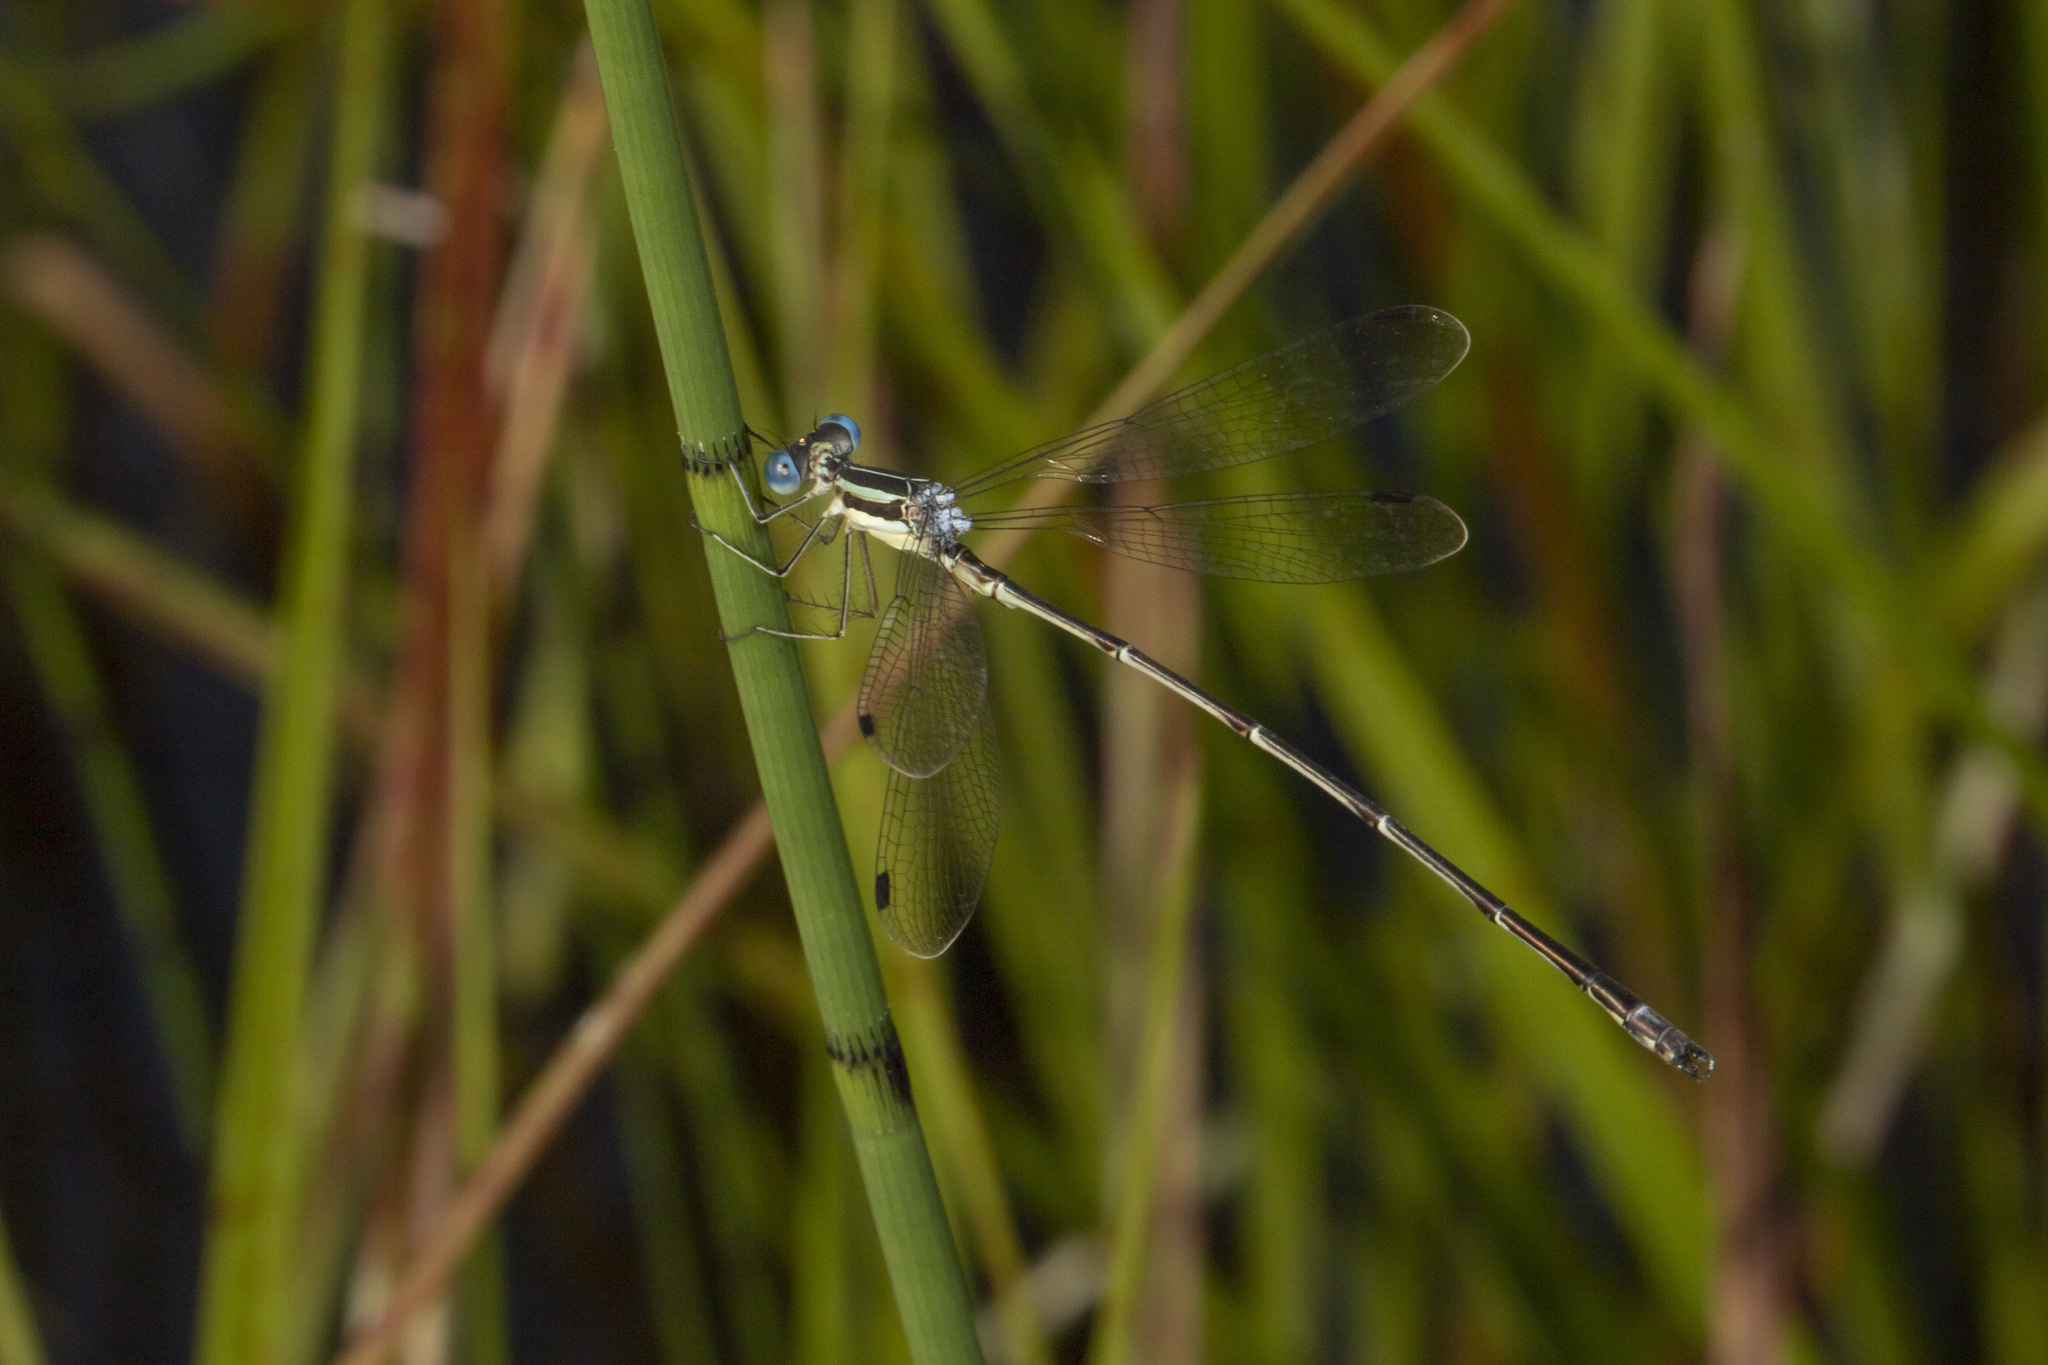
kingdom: Animalia
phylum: Arthropoda
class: Insecta
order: Odonata
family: Lestidae
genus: Lestes
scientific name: Lestes rectangularis
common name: Slender spreadwing
